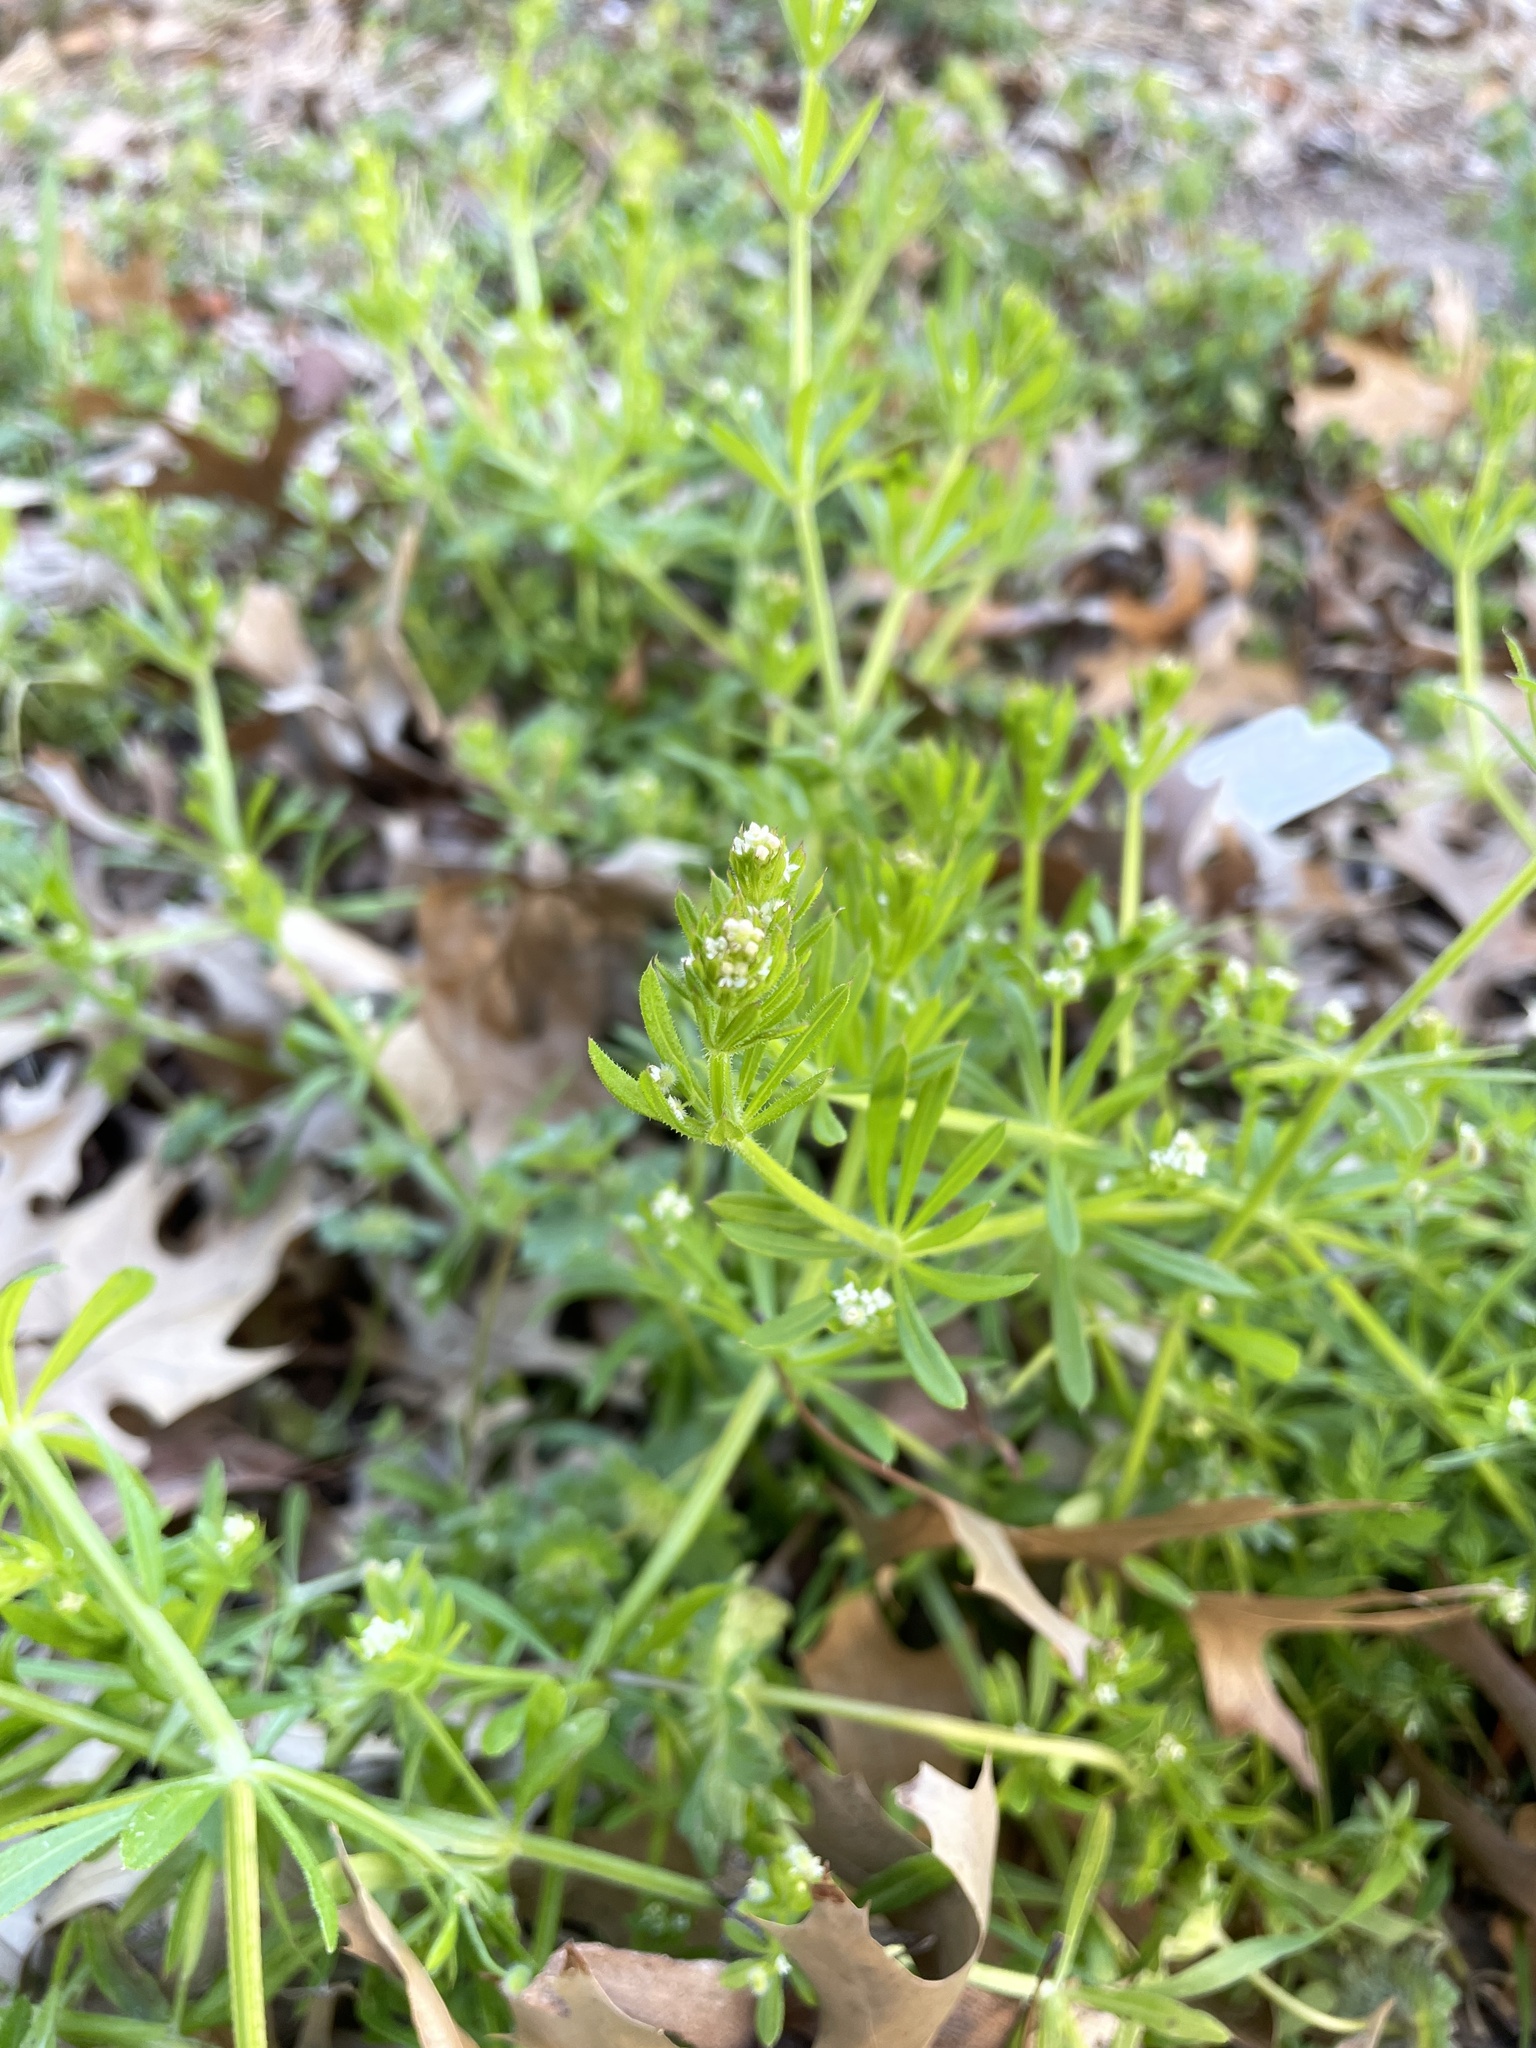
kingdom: Plantae
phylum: Tracheophyta
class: Magnoliopsida
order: Gentianales
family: Rubiaceae
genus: Galium
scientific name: Galium aparine
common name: Cleavers
